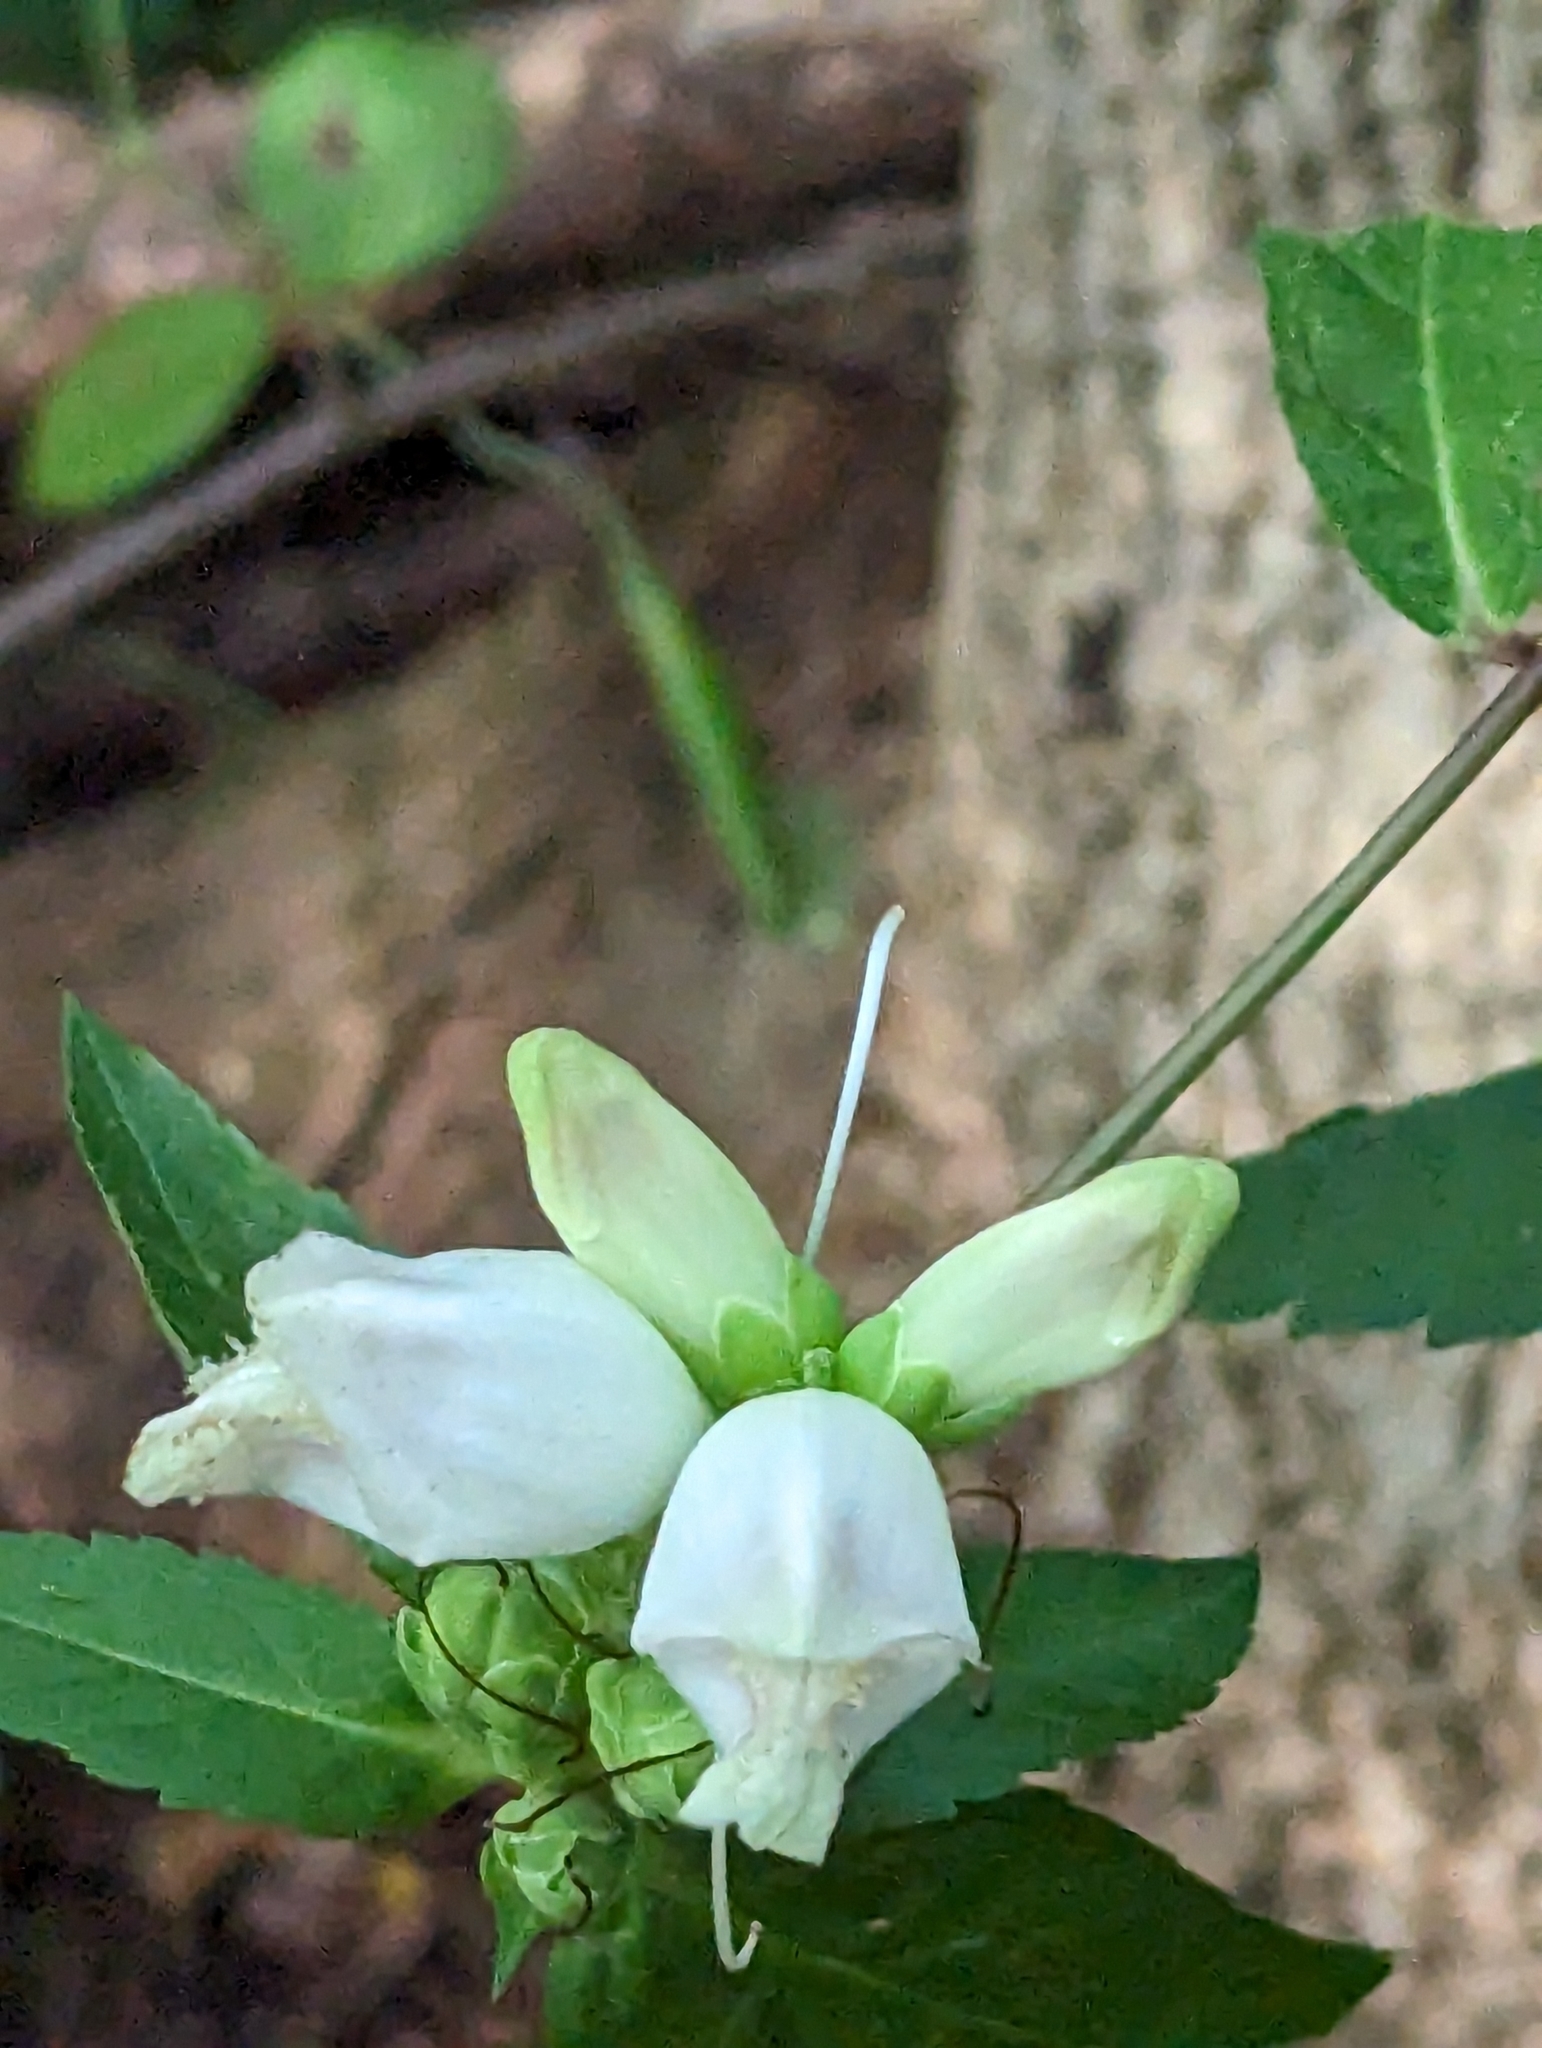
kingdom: Plantae
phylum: Tracheophyta
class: Magnoliopsida
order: Lamiales
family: Plantaginaceae
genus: Chelone
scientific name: Chelone glabra
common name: Snakehead
